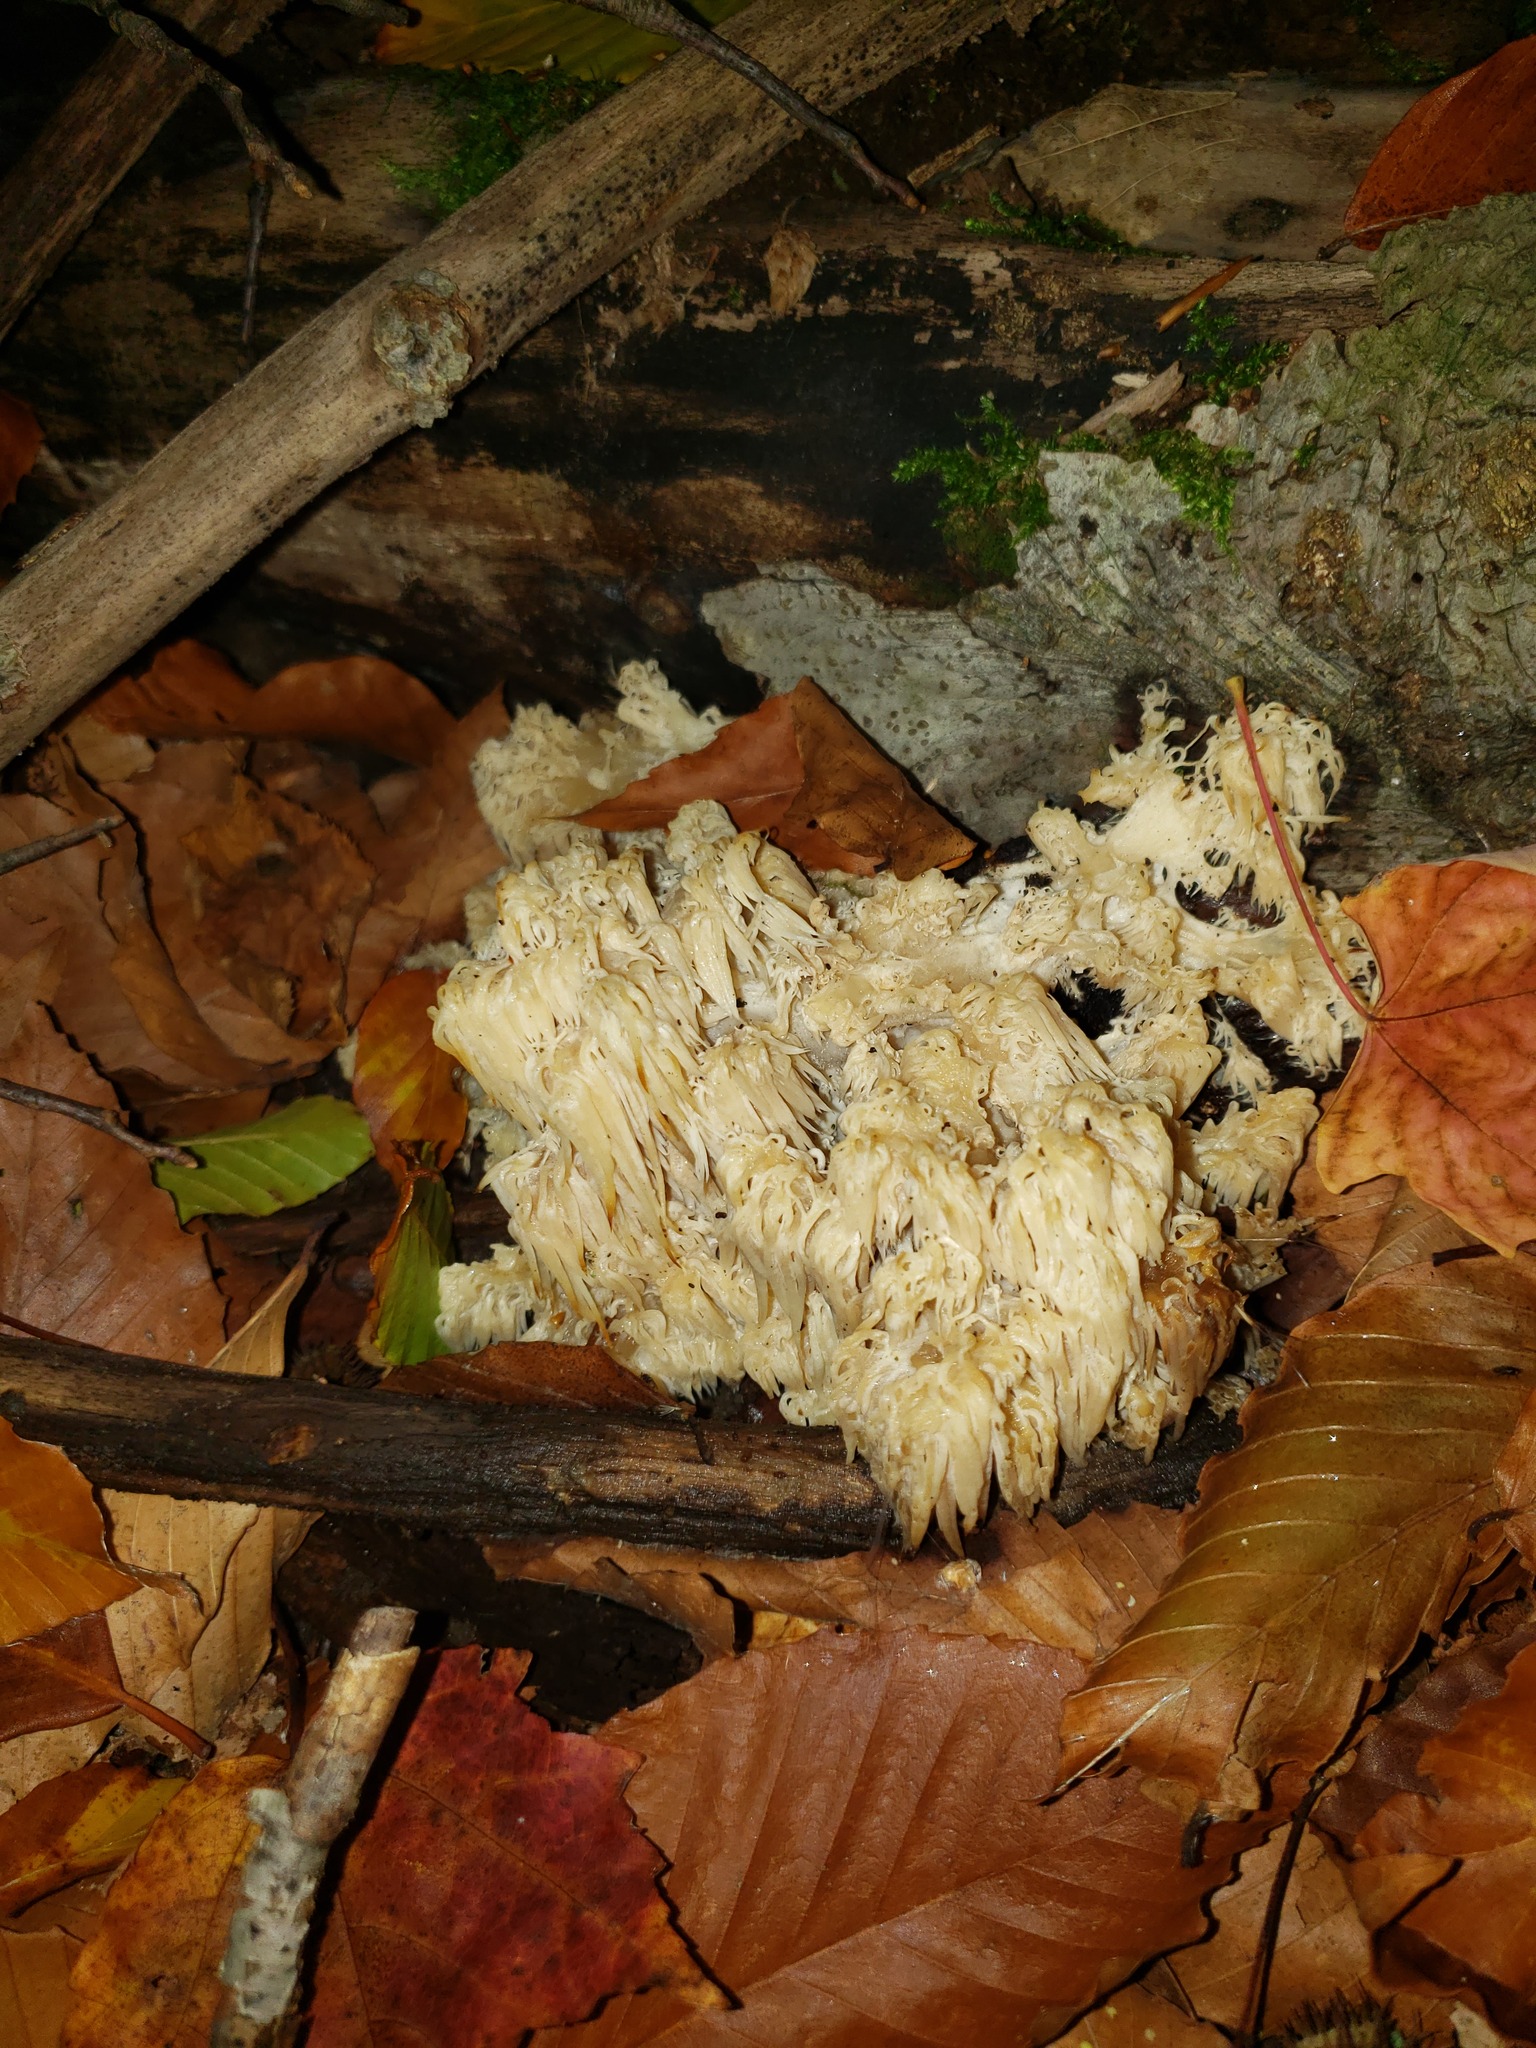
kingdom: Fungi
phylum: Basidiomycota
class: Agaricomycetes
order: Russulales
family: Hericiaceae
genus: Hericium
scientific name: Hericium americanum
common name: Bear's head tooth
